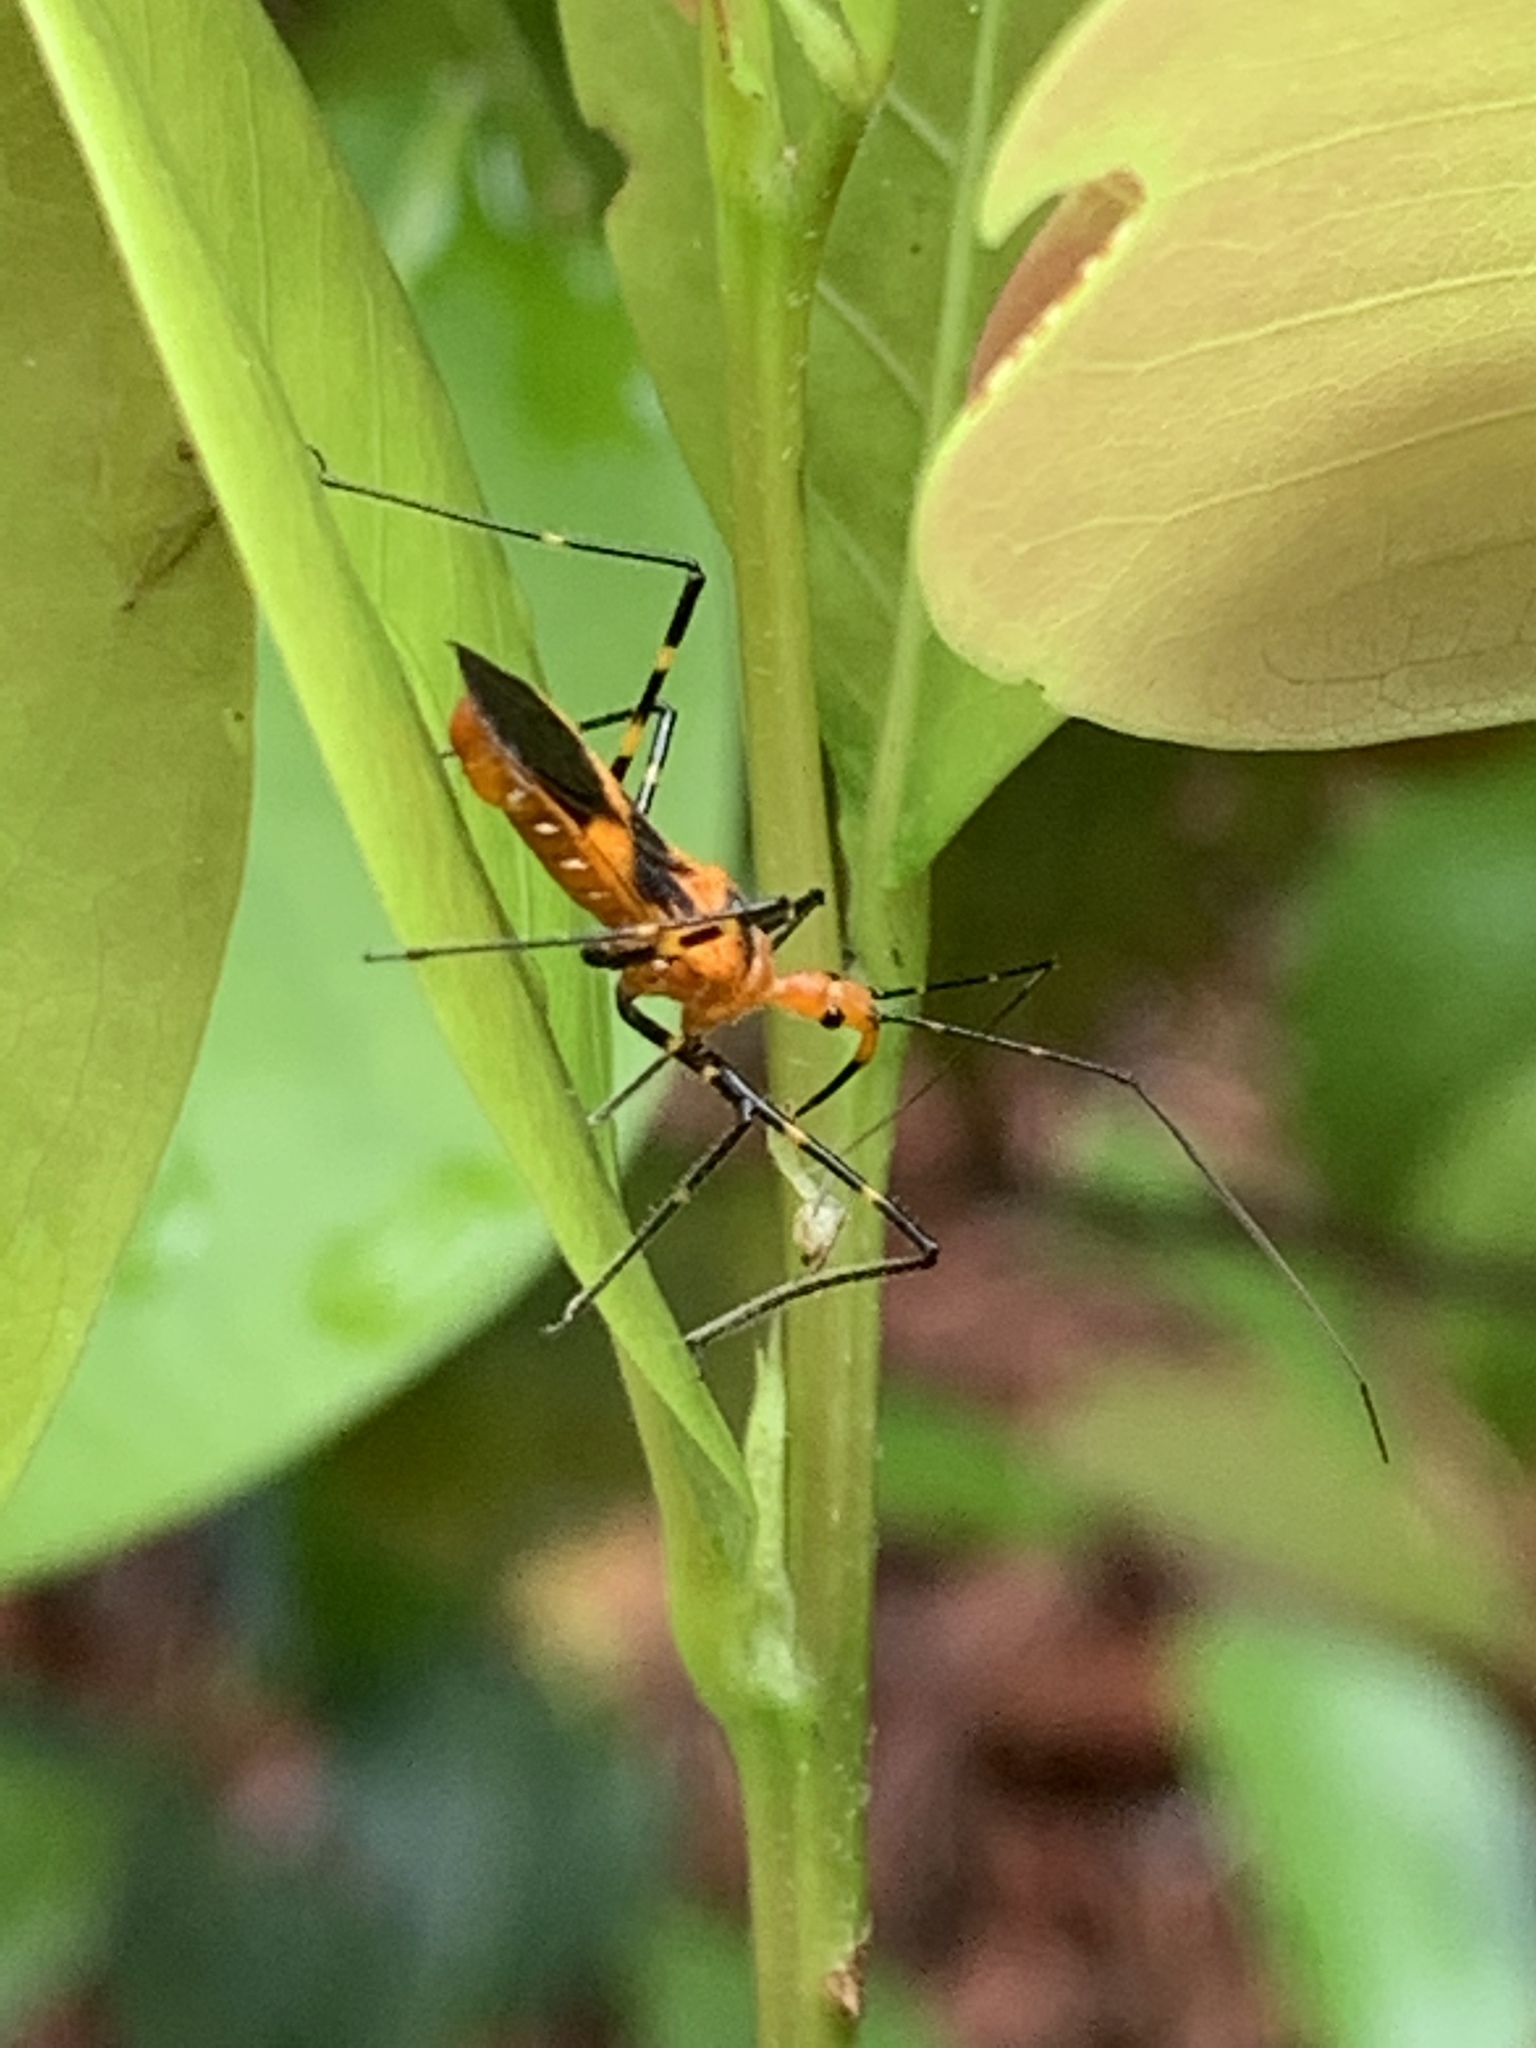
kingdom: Animalia
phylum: Arthropoda
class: Insecta
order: Hemiptera
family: Reduviidae
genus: Zelus
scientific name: Zelus longipes
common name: Milkweed assassin bug
